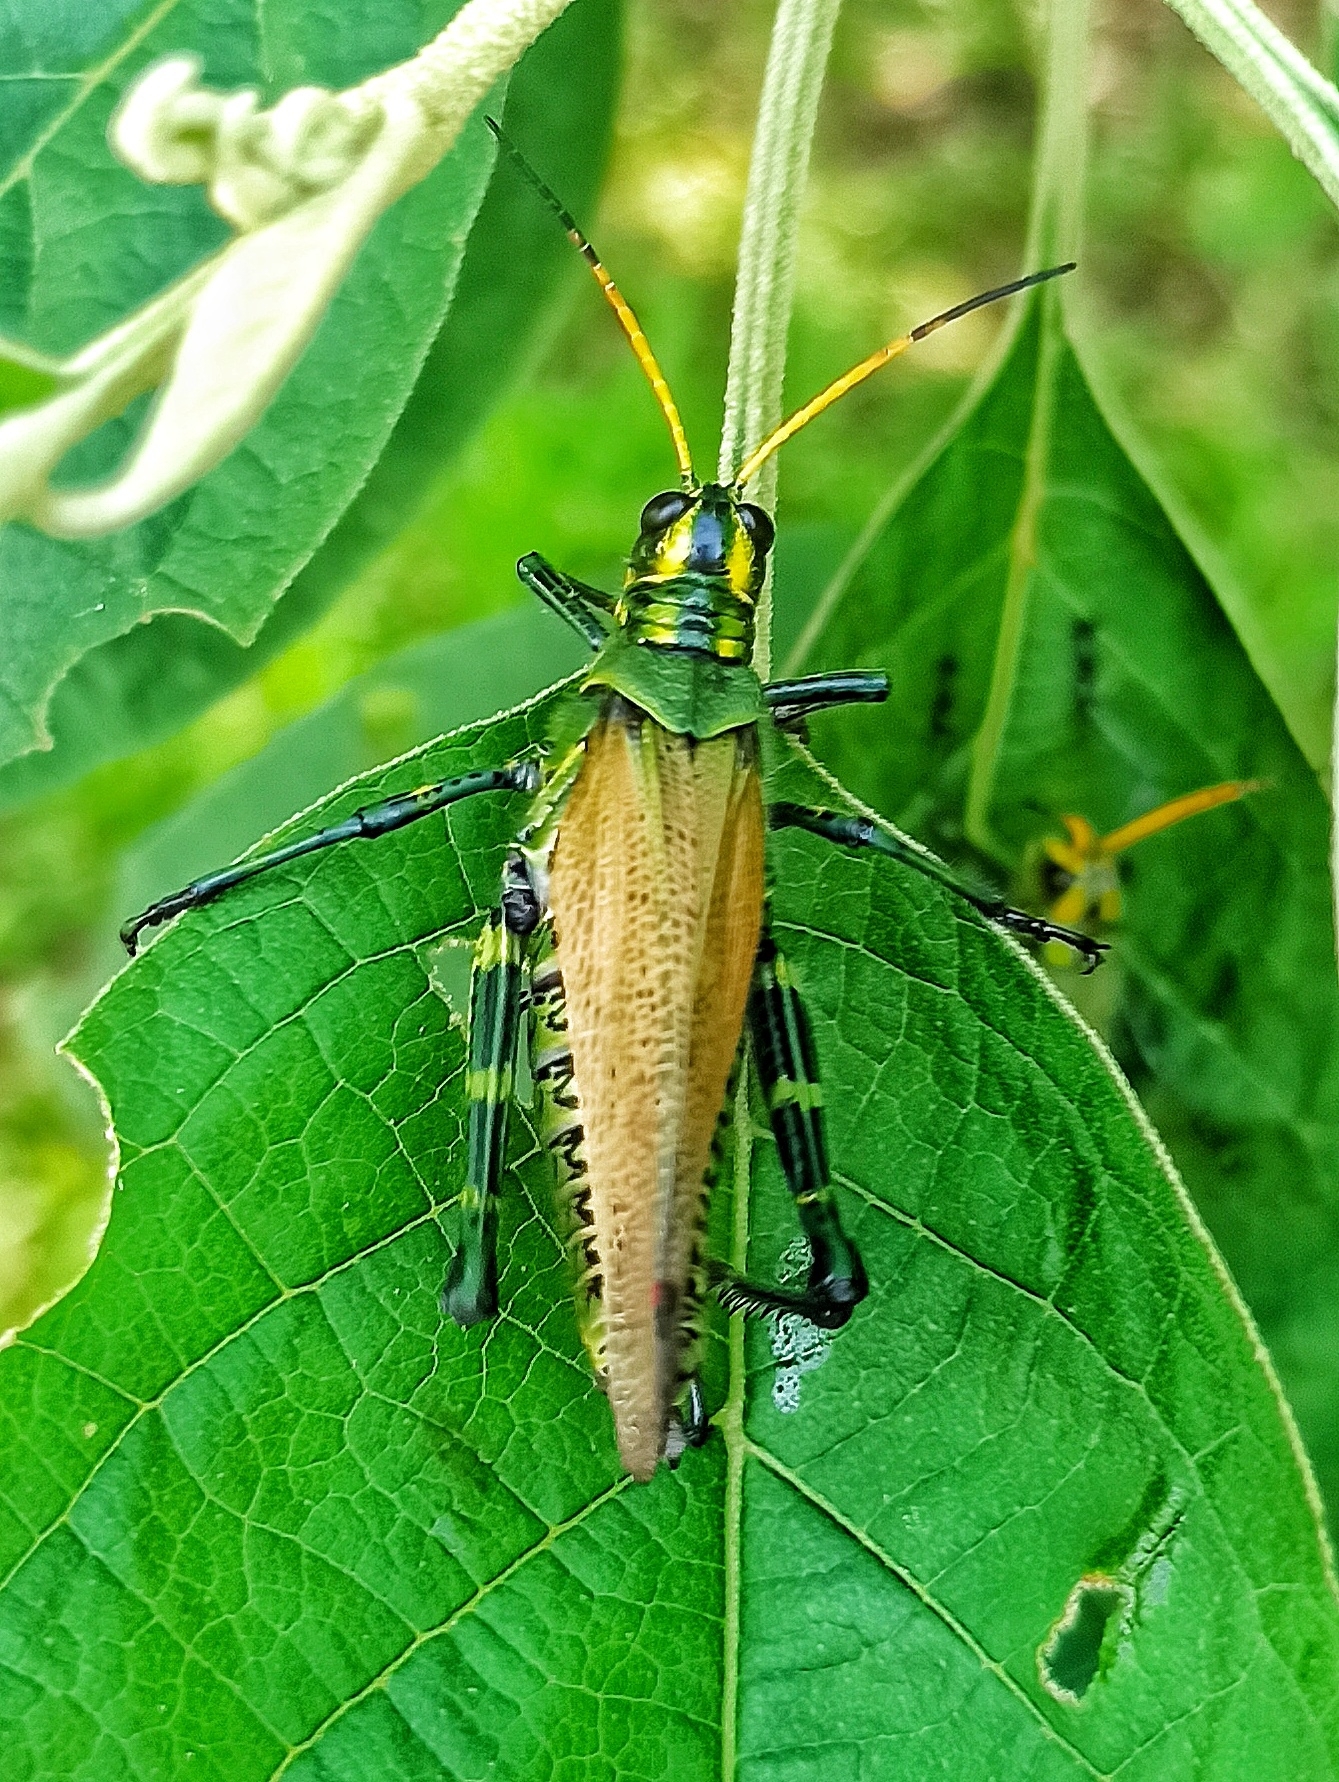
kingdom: Animalia
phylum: Arthropoda
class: Insecta
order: Orthoptera
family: Romaleidae
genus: Chromacris
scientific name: Chromacris colorata
